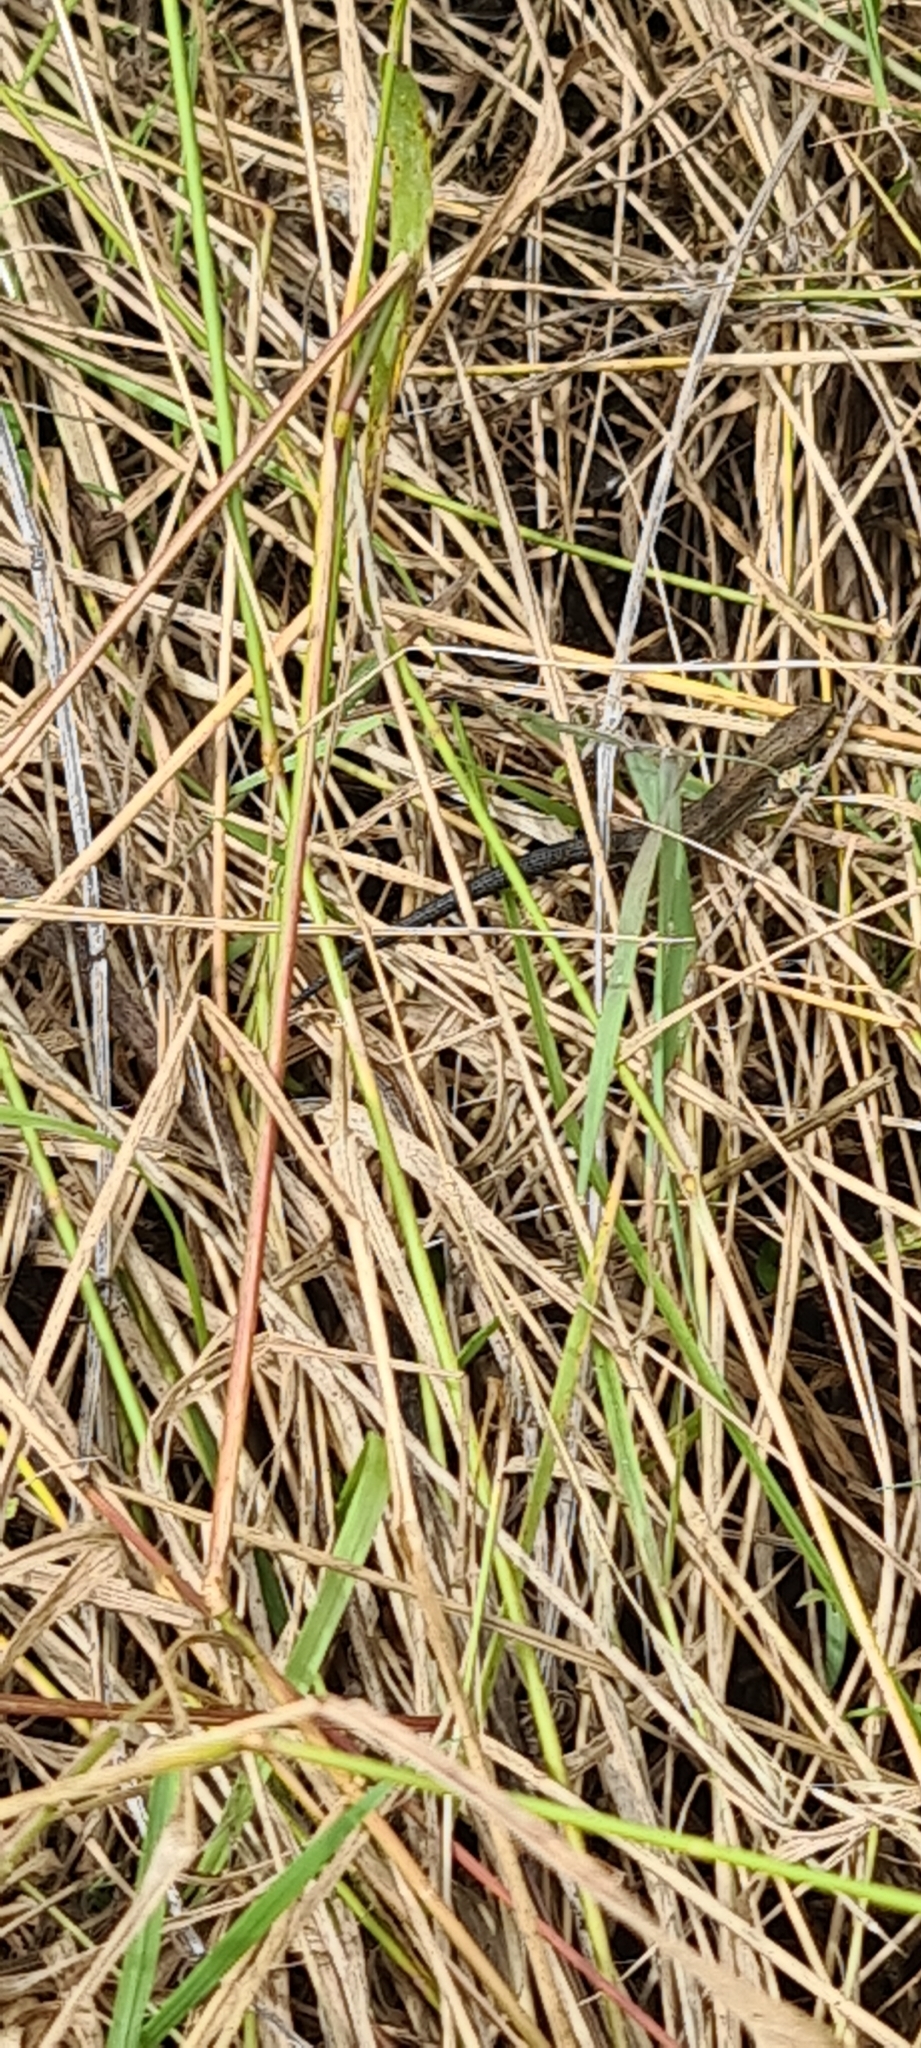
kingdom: Animalia
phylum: Chordata
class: Squamata
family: Lacertidae
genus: Zootoca
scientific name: Zootoca vivipara
